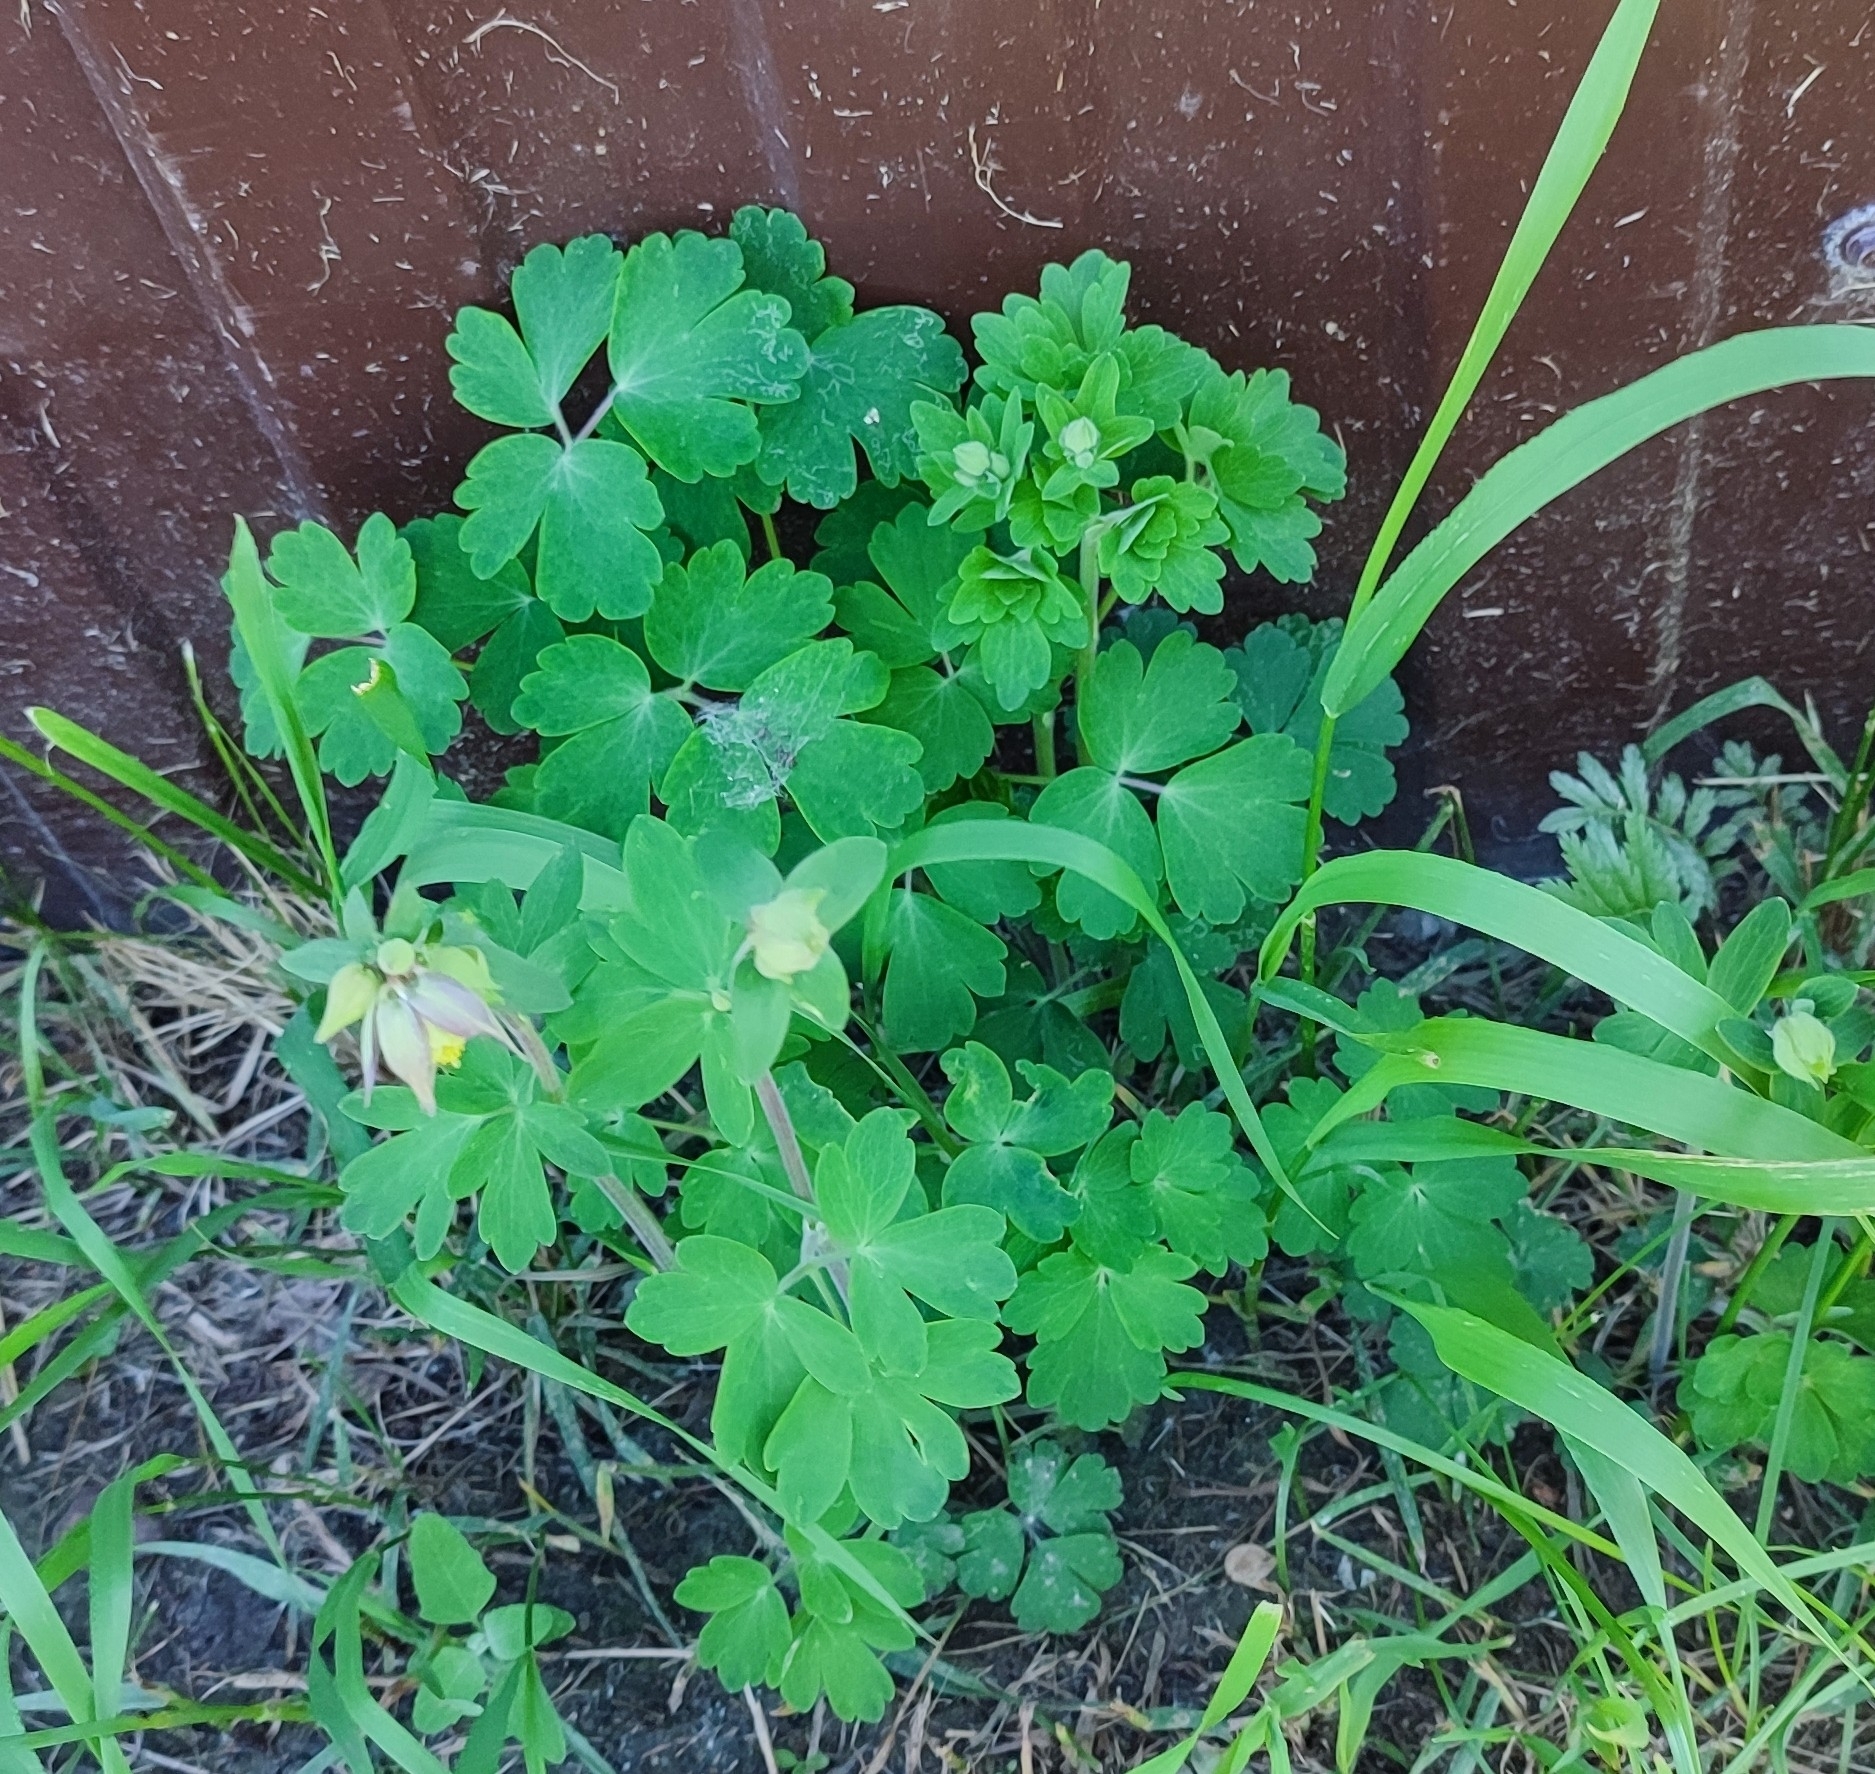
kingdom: Plantae
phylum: Tracheophyta
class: Magnoliopsida
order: Ranunculales
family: Ranunculaceae
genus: Aquilegia
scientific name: Aquilegia vulgaris
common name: Columbine
